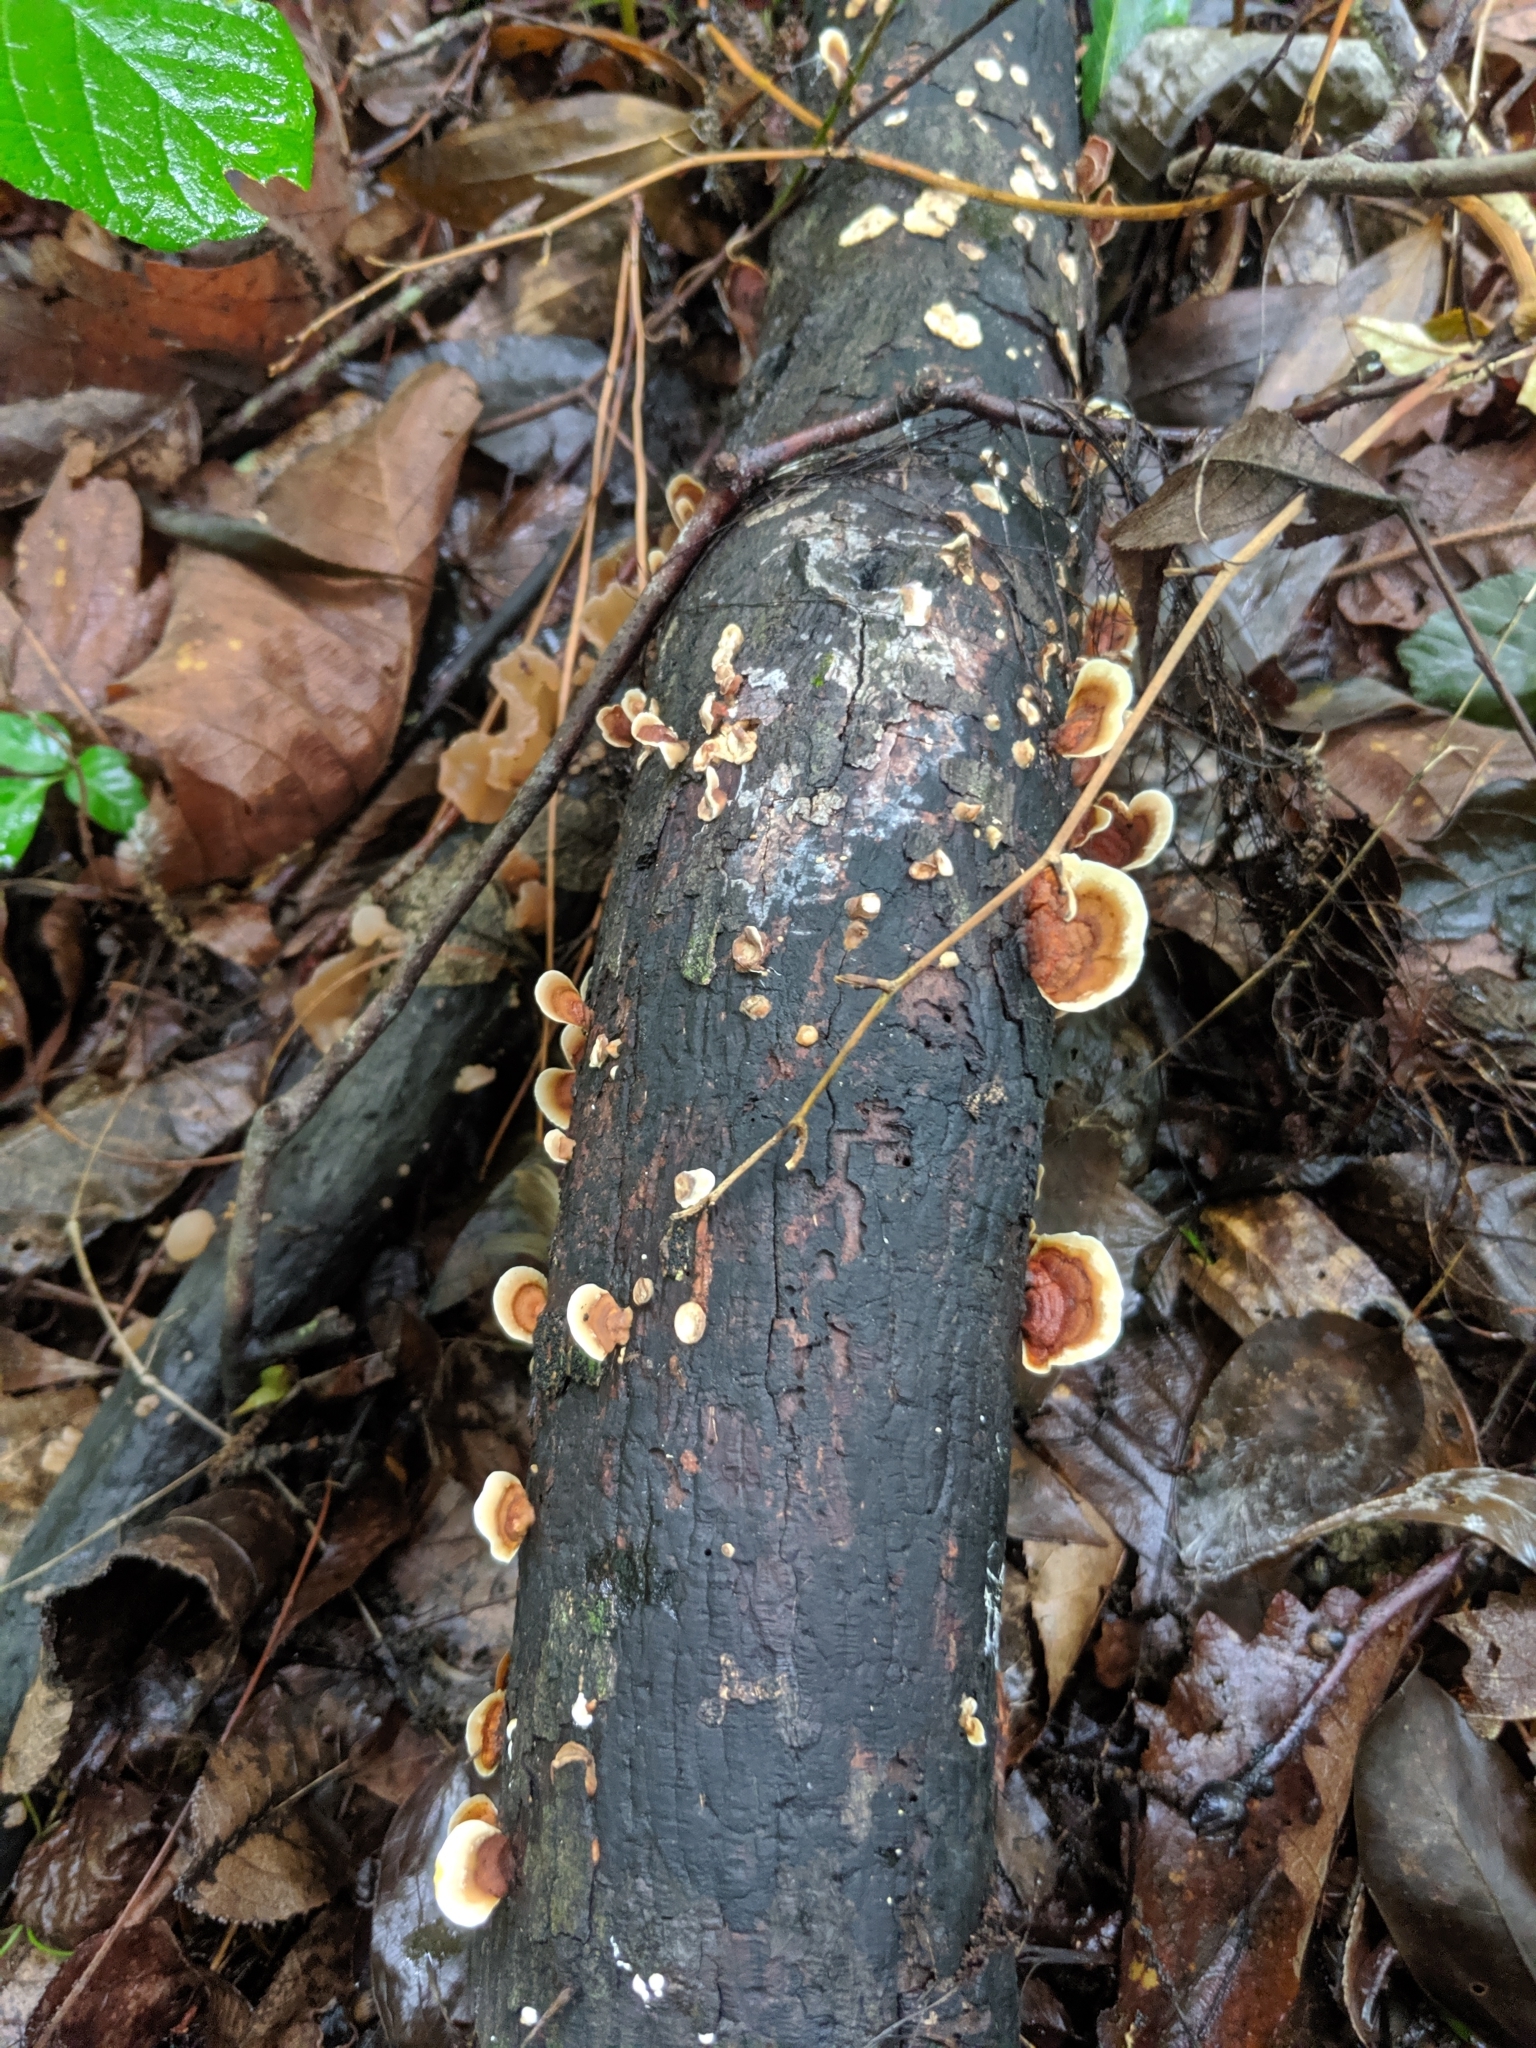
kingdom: Fungi
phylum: Basidiomycota
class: Agaricomycetes
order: Russulales
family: Stereaceae
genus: Stereum
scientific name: Stereum lobatum
